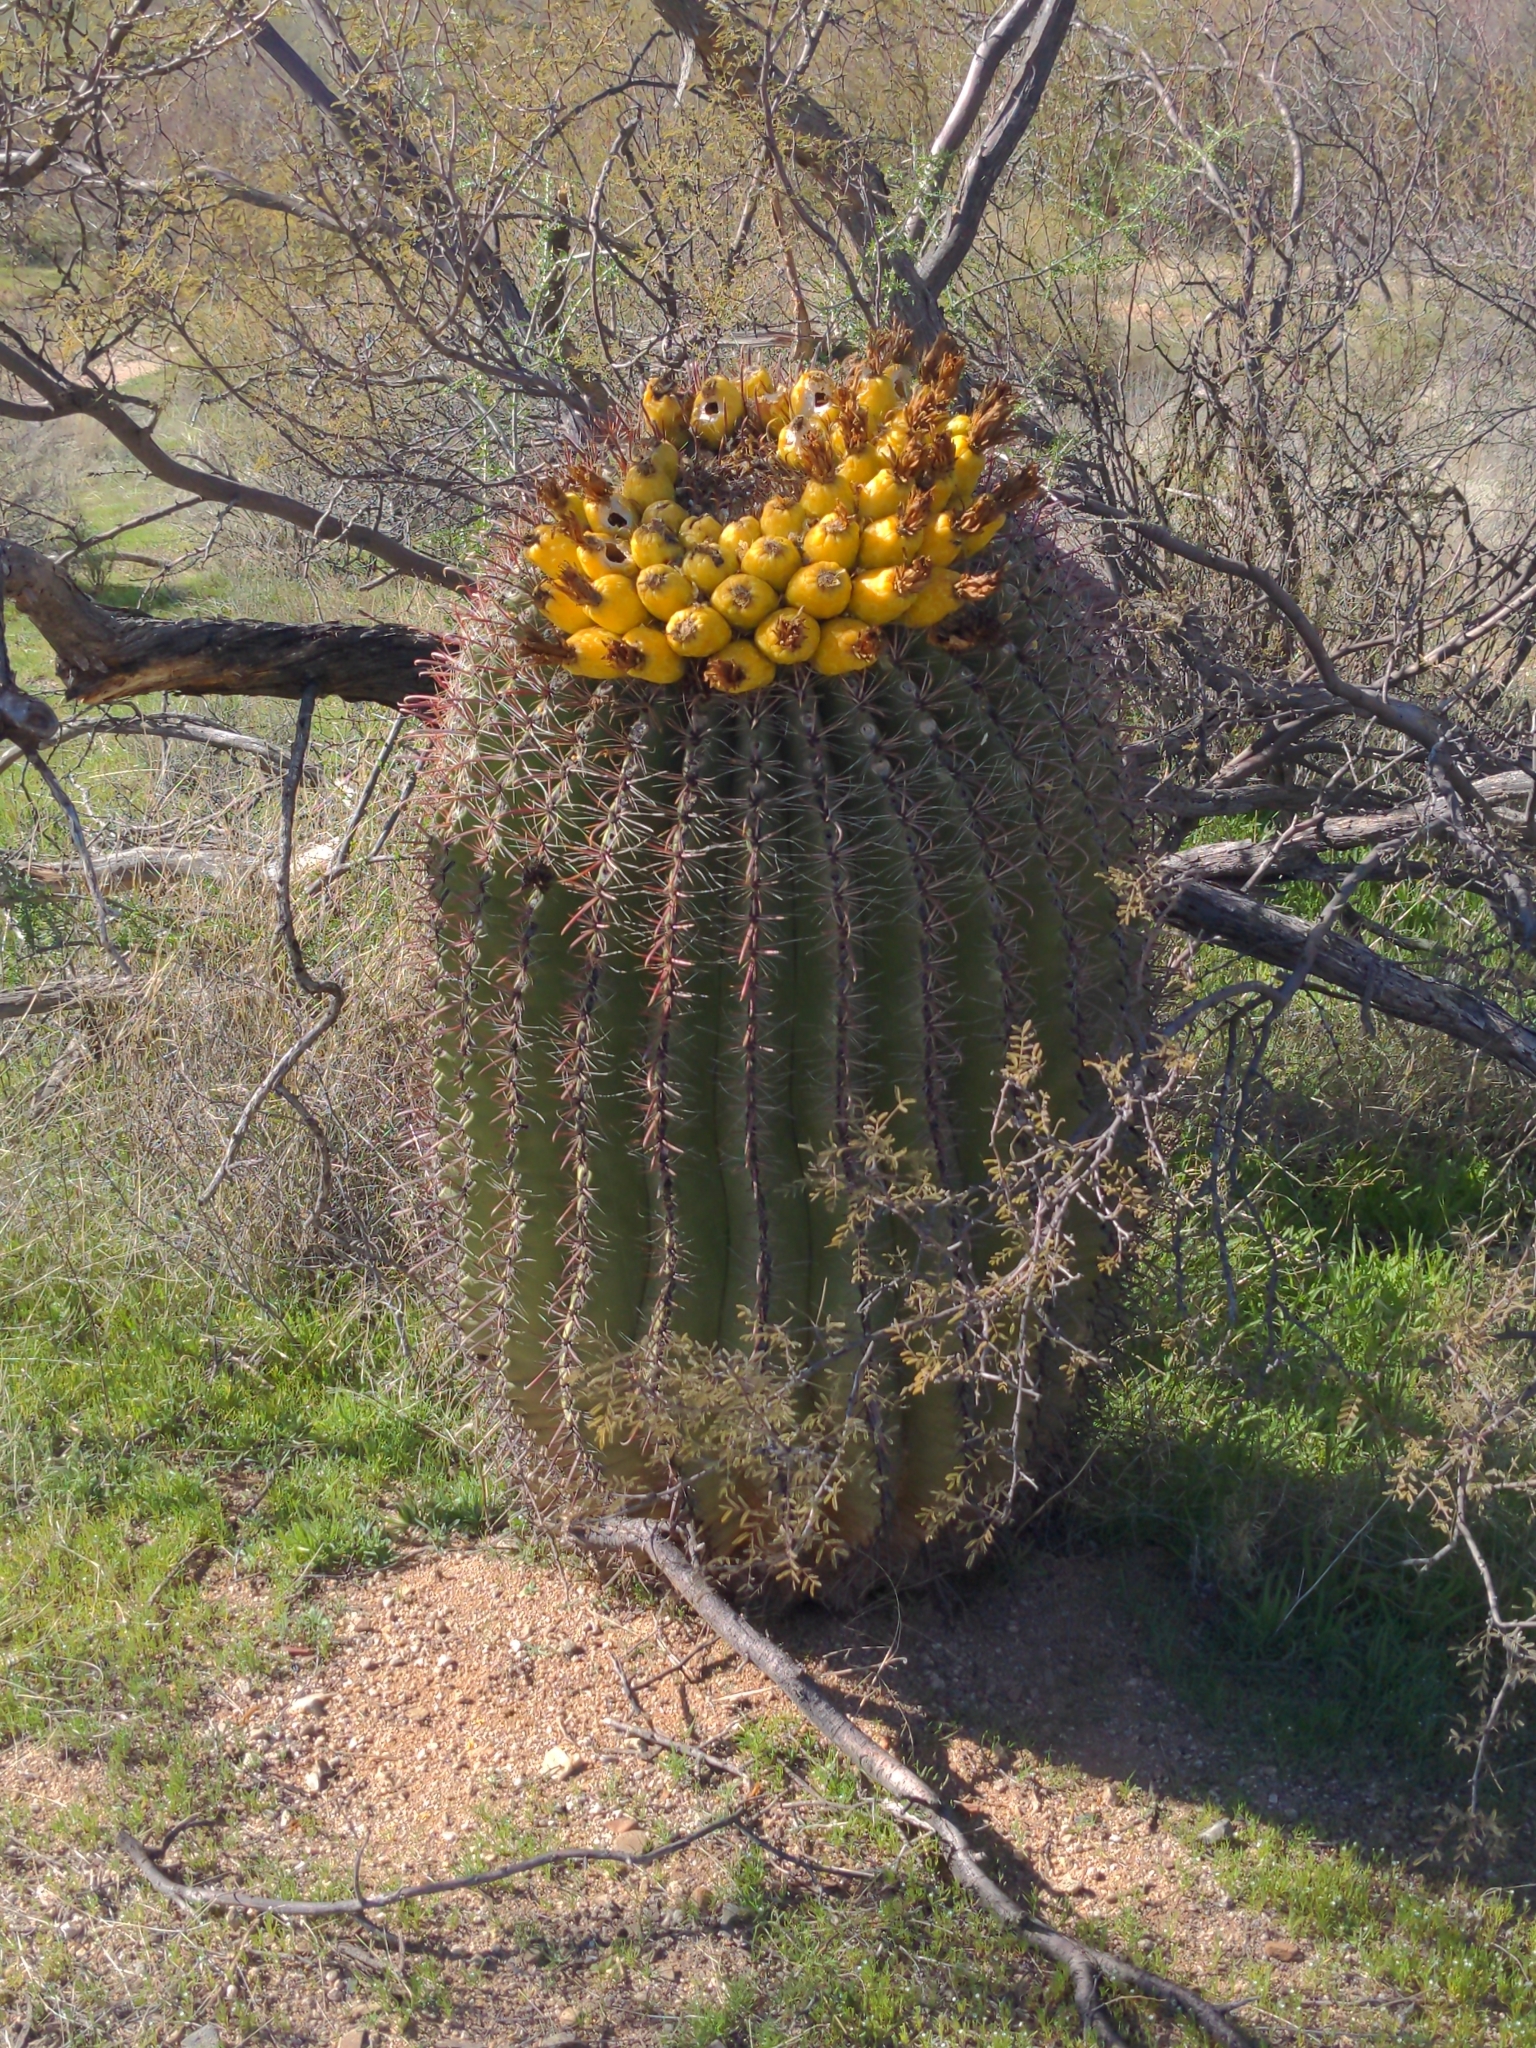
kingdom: Plantae
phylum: Tracheophyta
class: Magnoliopsida
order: Caryophyllales
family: Cactaceae
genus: Ferocactus
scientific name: Ferocactus wislizeni
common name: Candy barrel cactus
